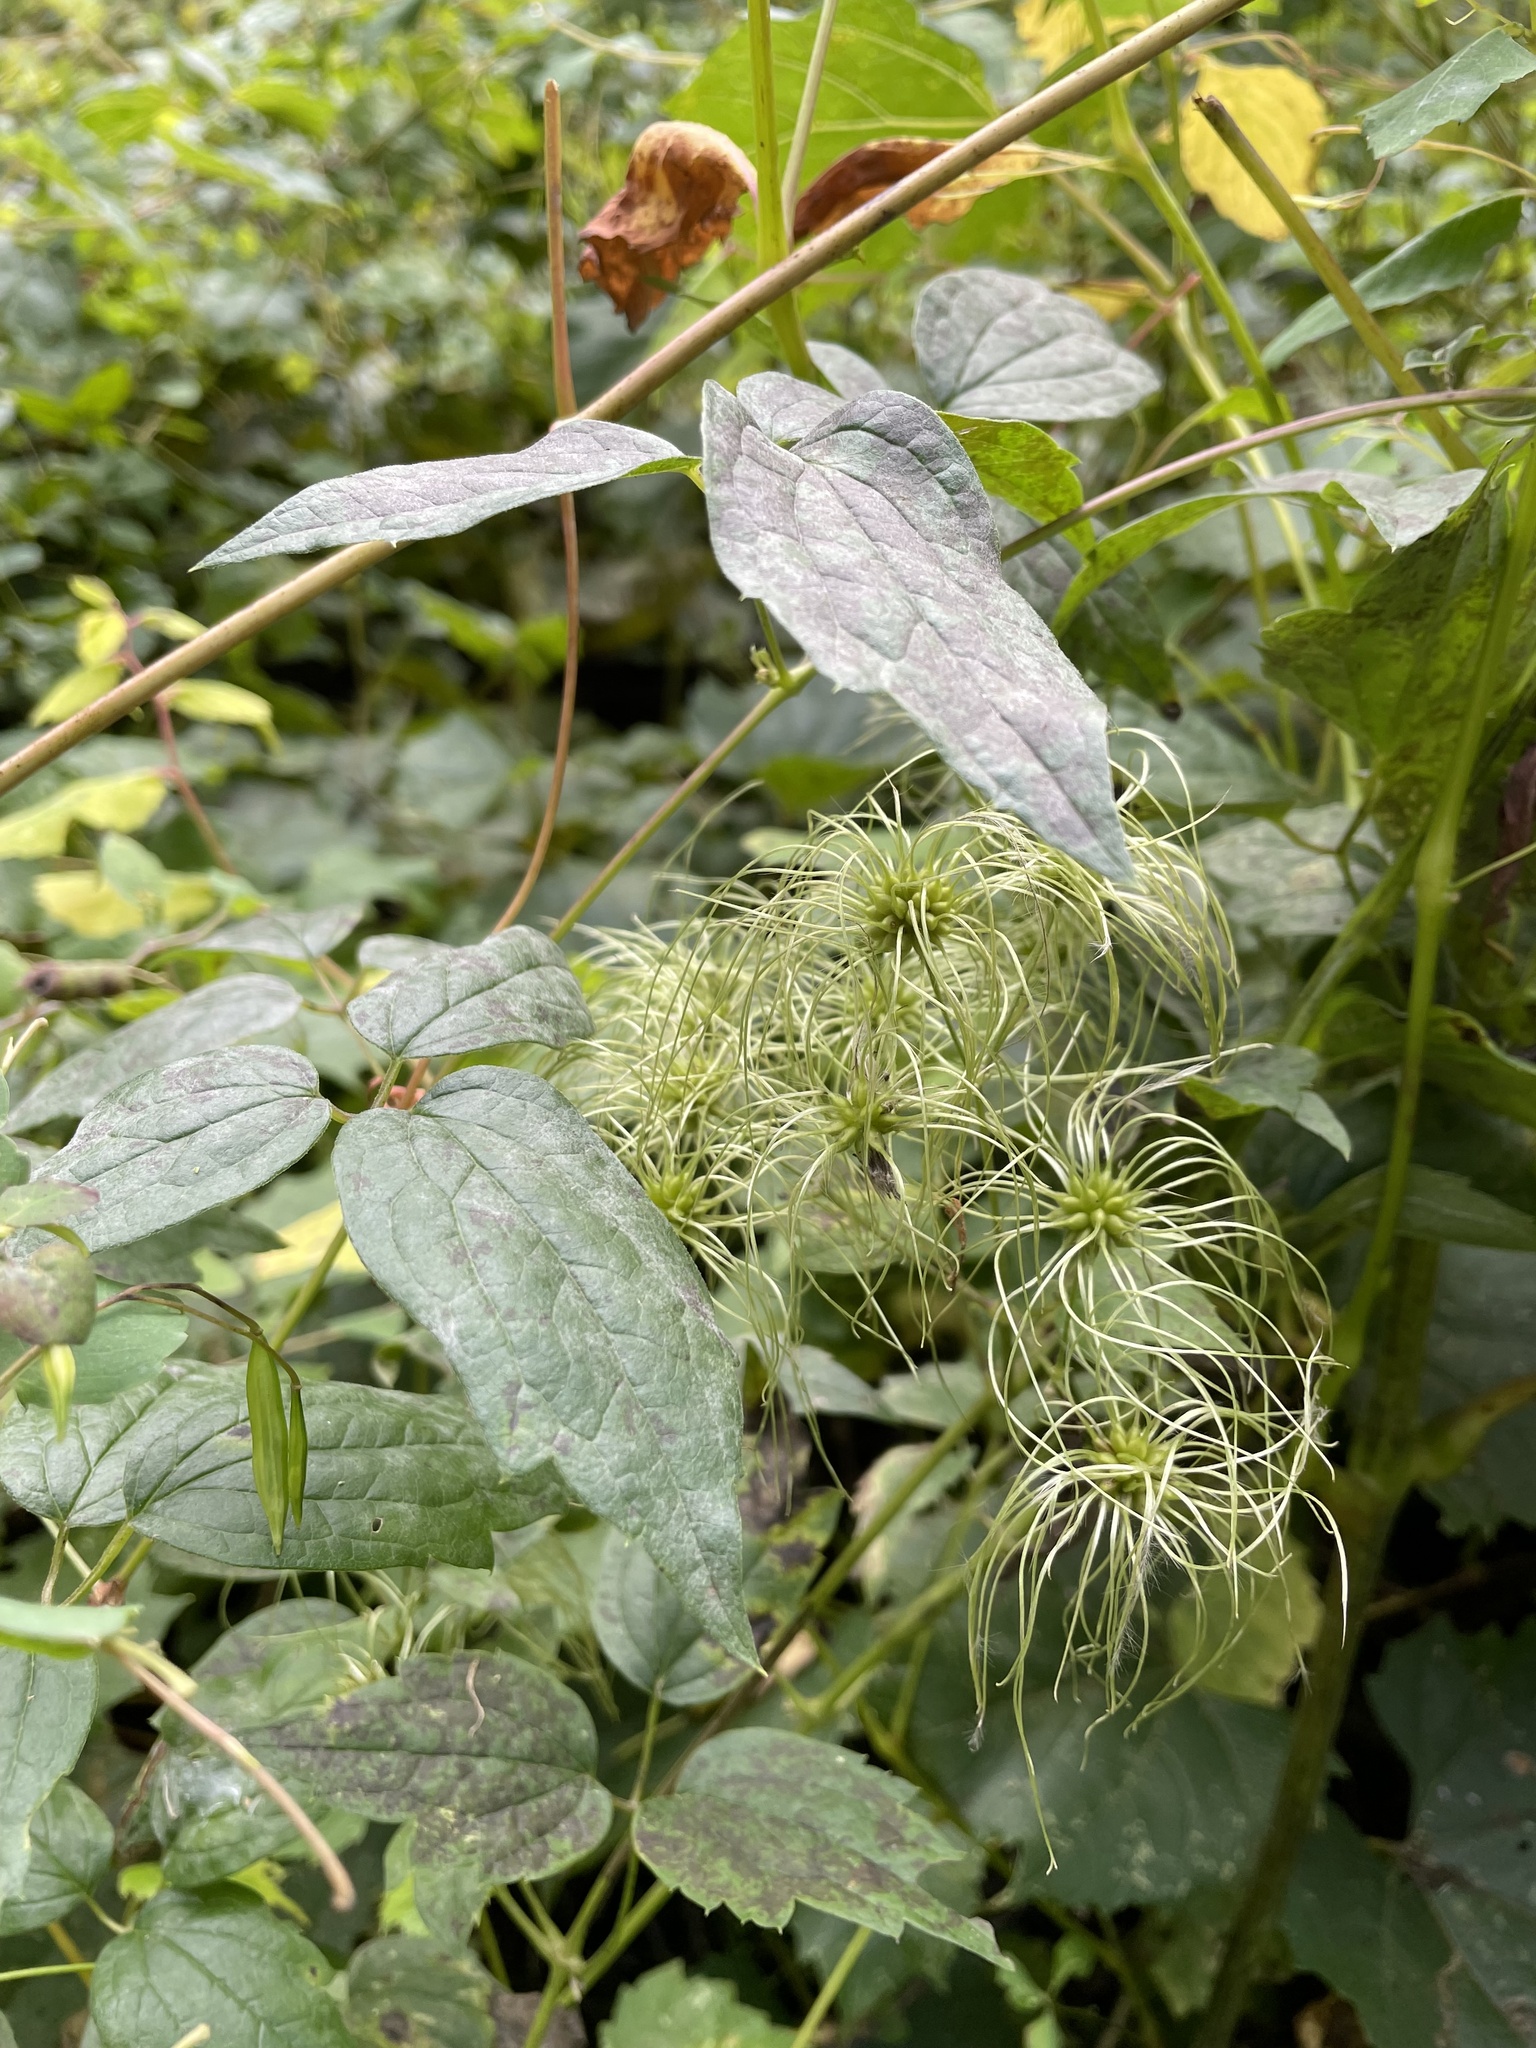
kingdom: Plantae
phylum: Tracheophyta
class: Magnoliopsida
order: Ranunculales
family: Ranunculaceae
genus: Clematis
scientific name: Clematis virginiana
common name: Virgin's-bower
